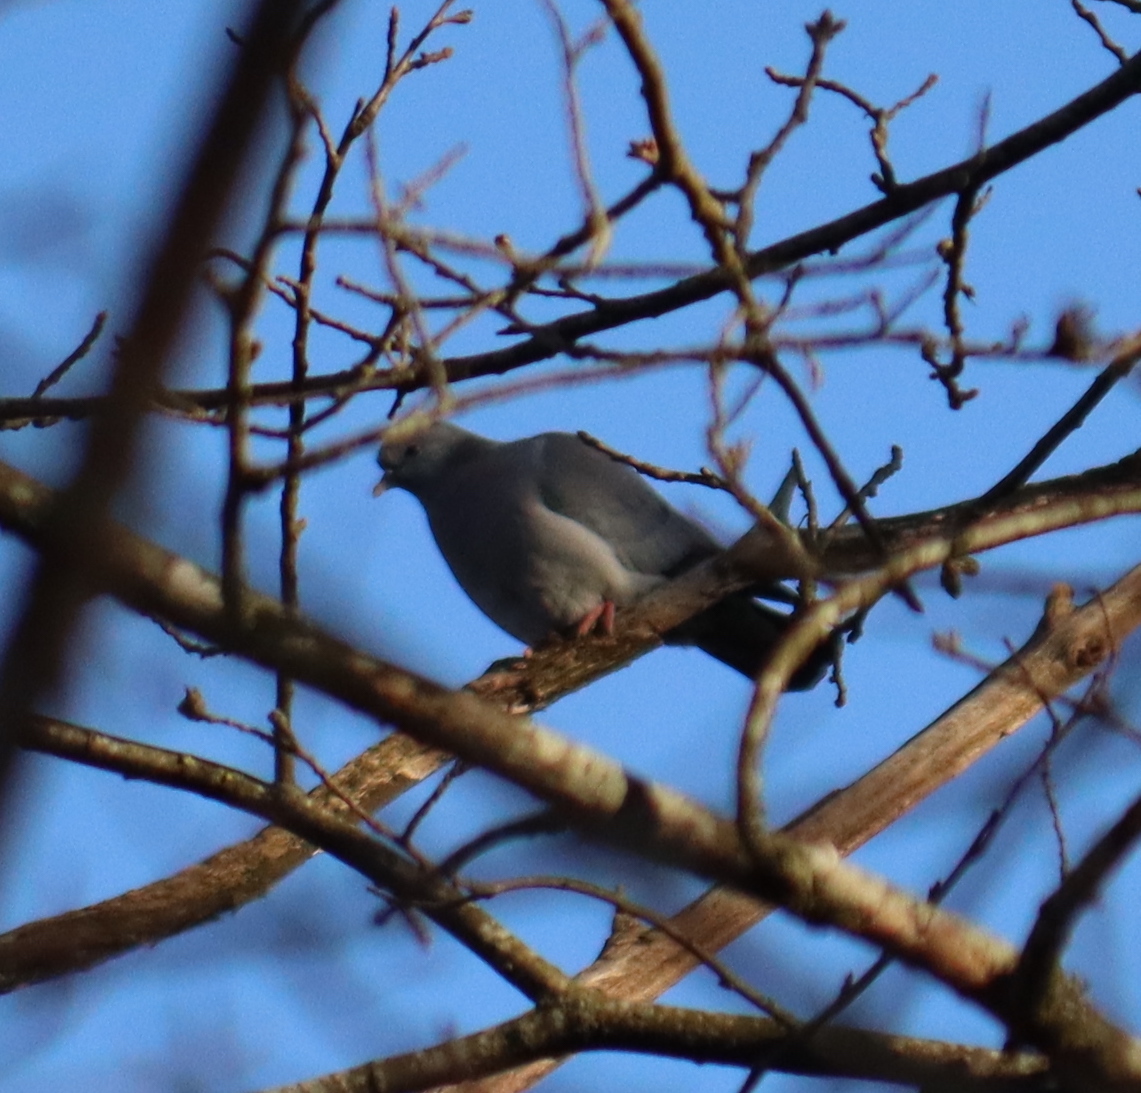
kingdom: Animalia
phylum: Chordata
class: Aves
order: Columbiformes
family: Columbidae
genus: Columba
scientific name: Columba oenas
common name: Stock dove
